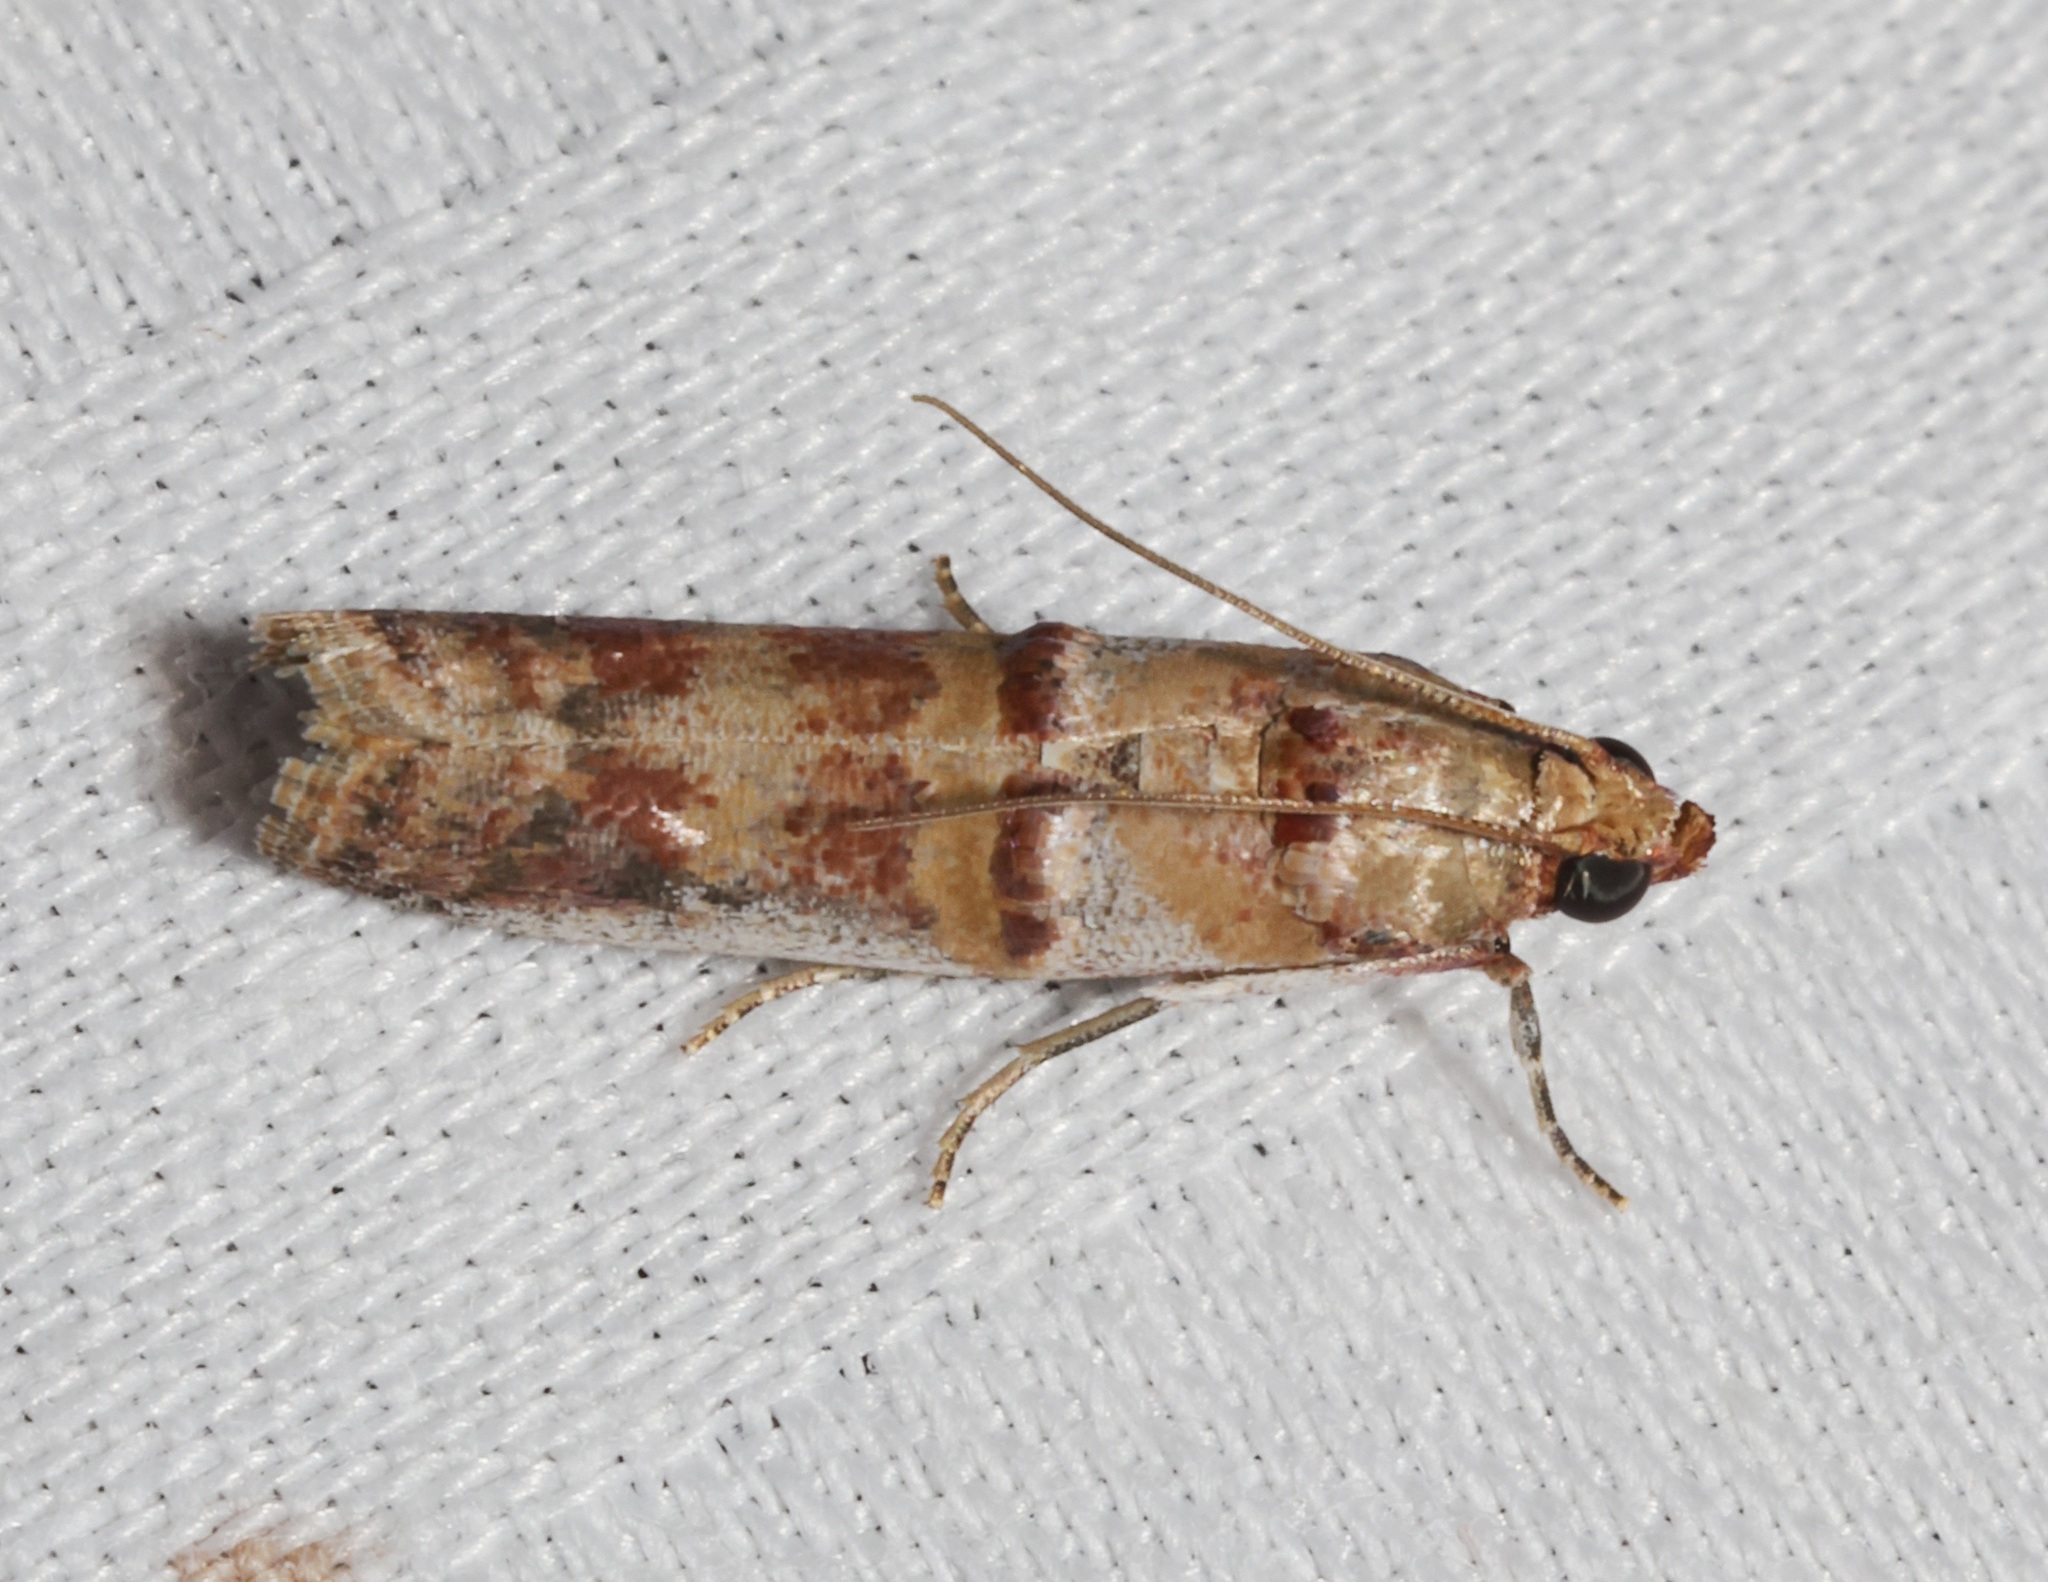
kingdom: Animalia
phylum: Arthropoda
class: Insecta
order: Lepidoptera
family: Pyralidae
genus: Hypargyria
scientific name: Hypargyria metalliferella
